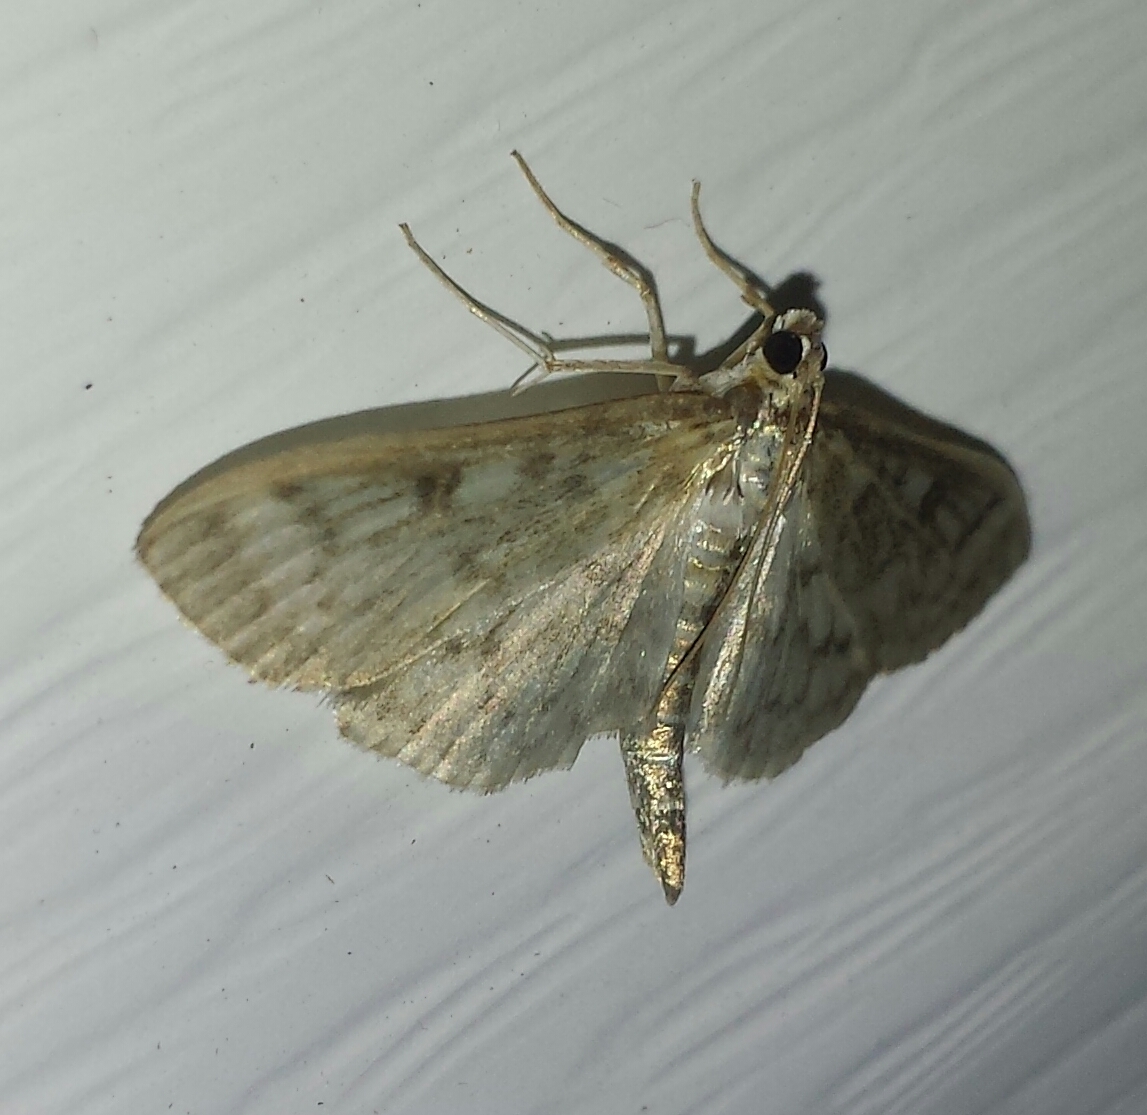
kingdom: Animalia
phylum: Arthropoda
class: Insecta
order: Lepidoptera
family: Crambidae
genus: Herpetogramma
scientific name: Herpetogramma pertextalis
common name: Bold-feathered grass moth
